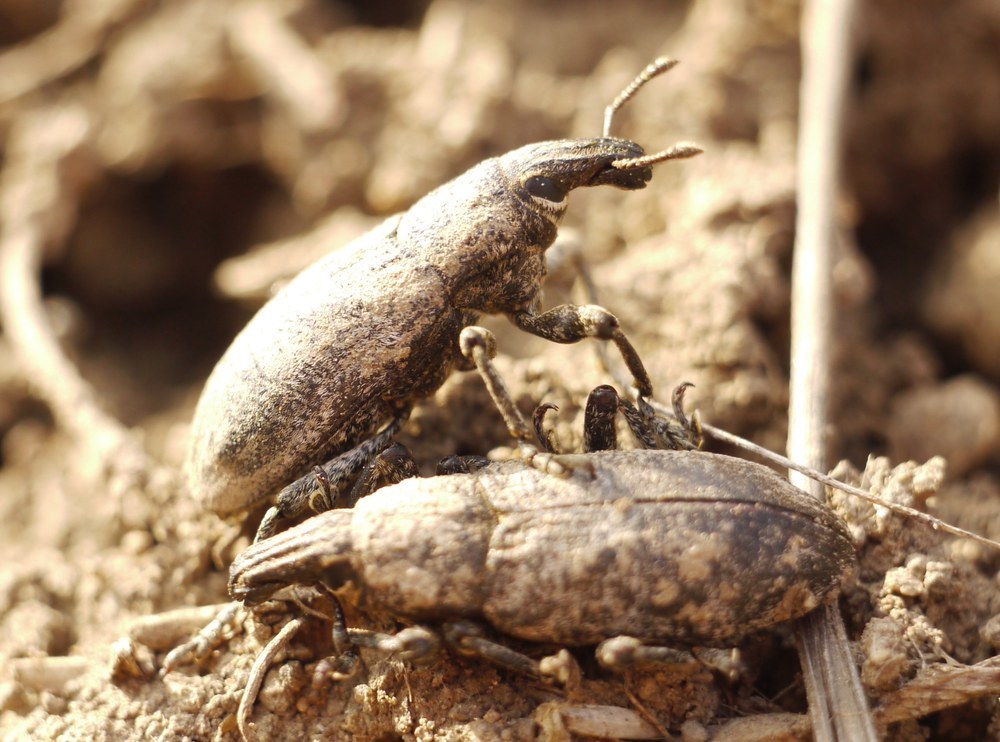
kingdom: Animalia
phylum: Arthropoda
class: Insecta
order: Coleoptera
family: Curculionidae
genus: Cleonis
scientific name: Cleonis pigra
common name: Large thistle weevil
